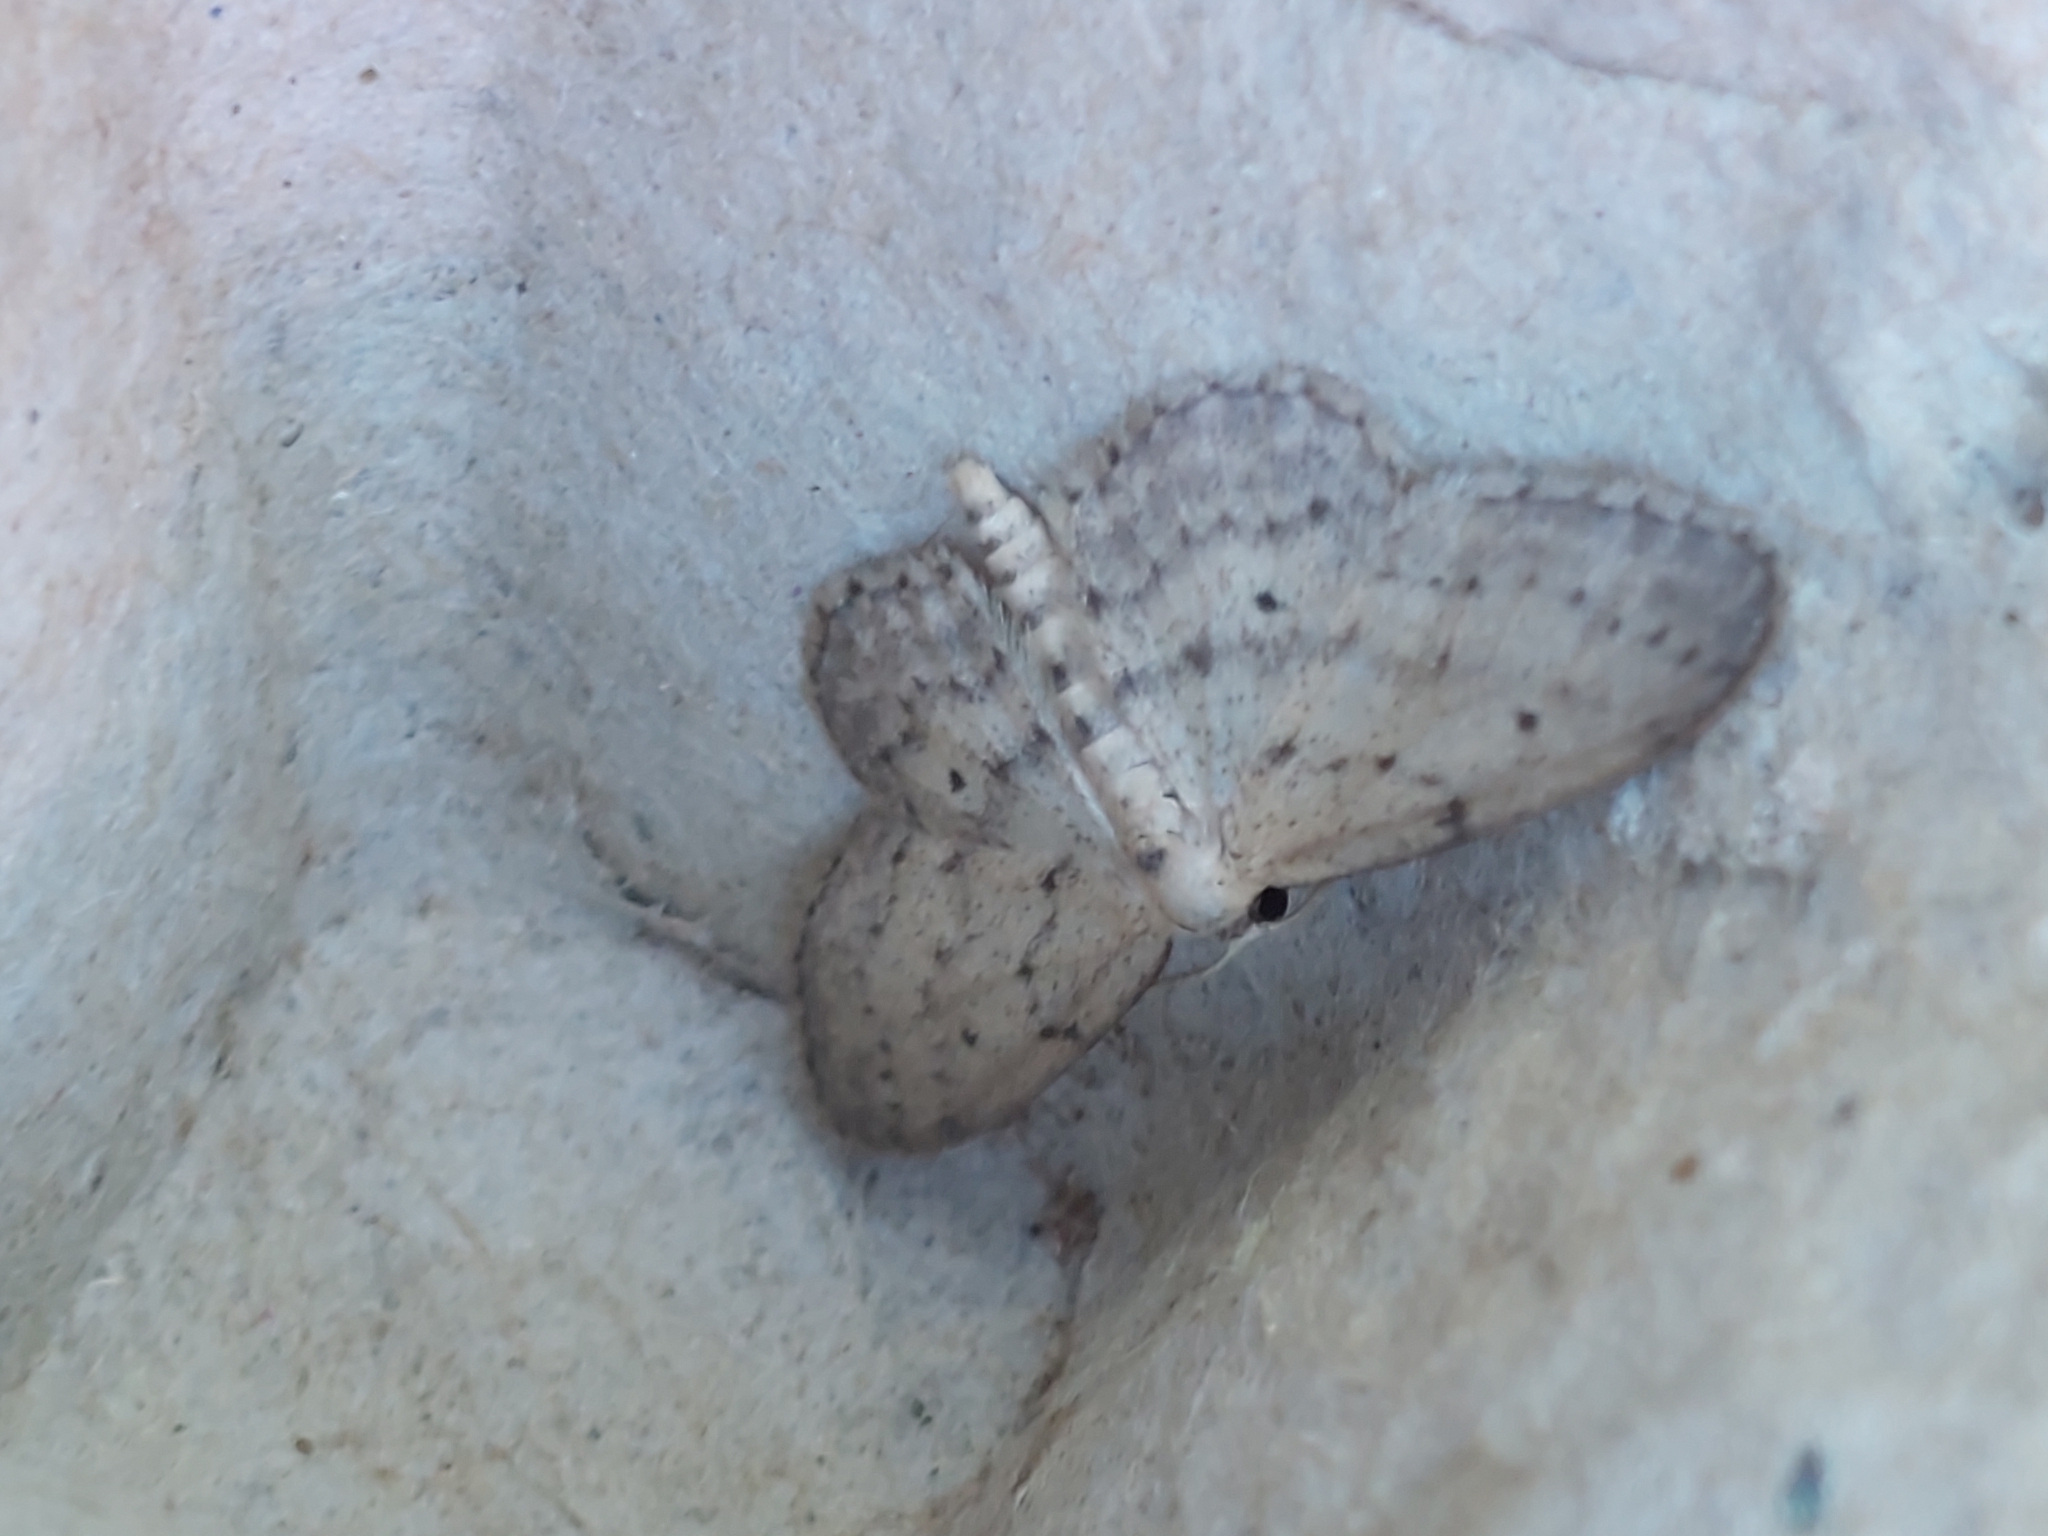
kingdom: Animalia
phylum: Arthropoda
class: Insecta
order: Lepidoptera
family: Geometridae
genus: Idaea
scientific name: Idaea seriata
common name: Small dusty wave
